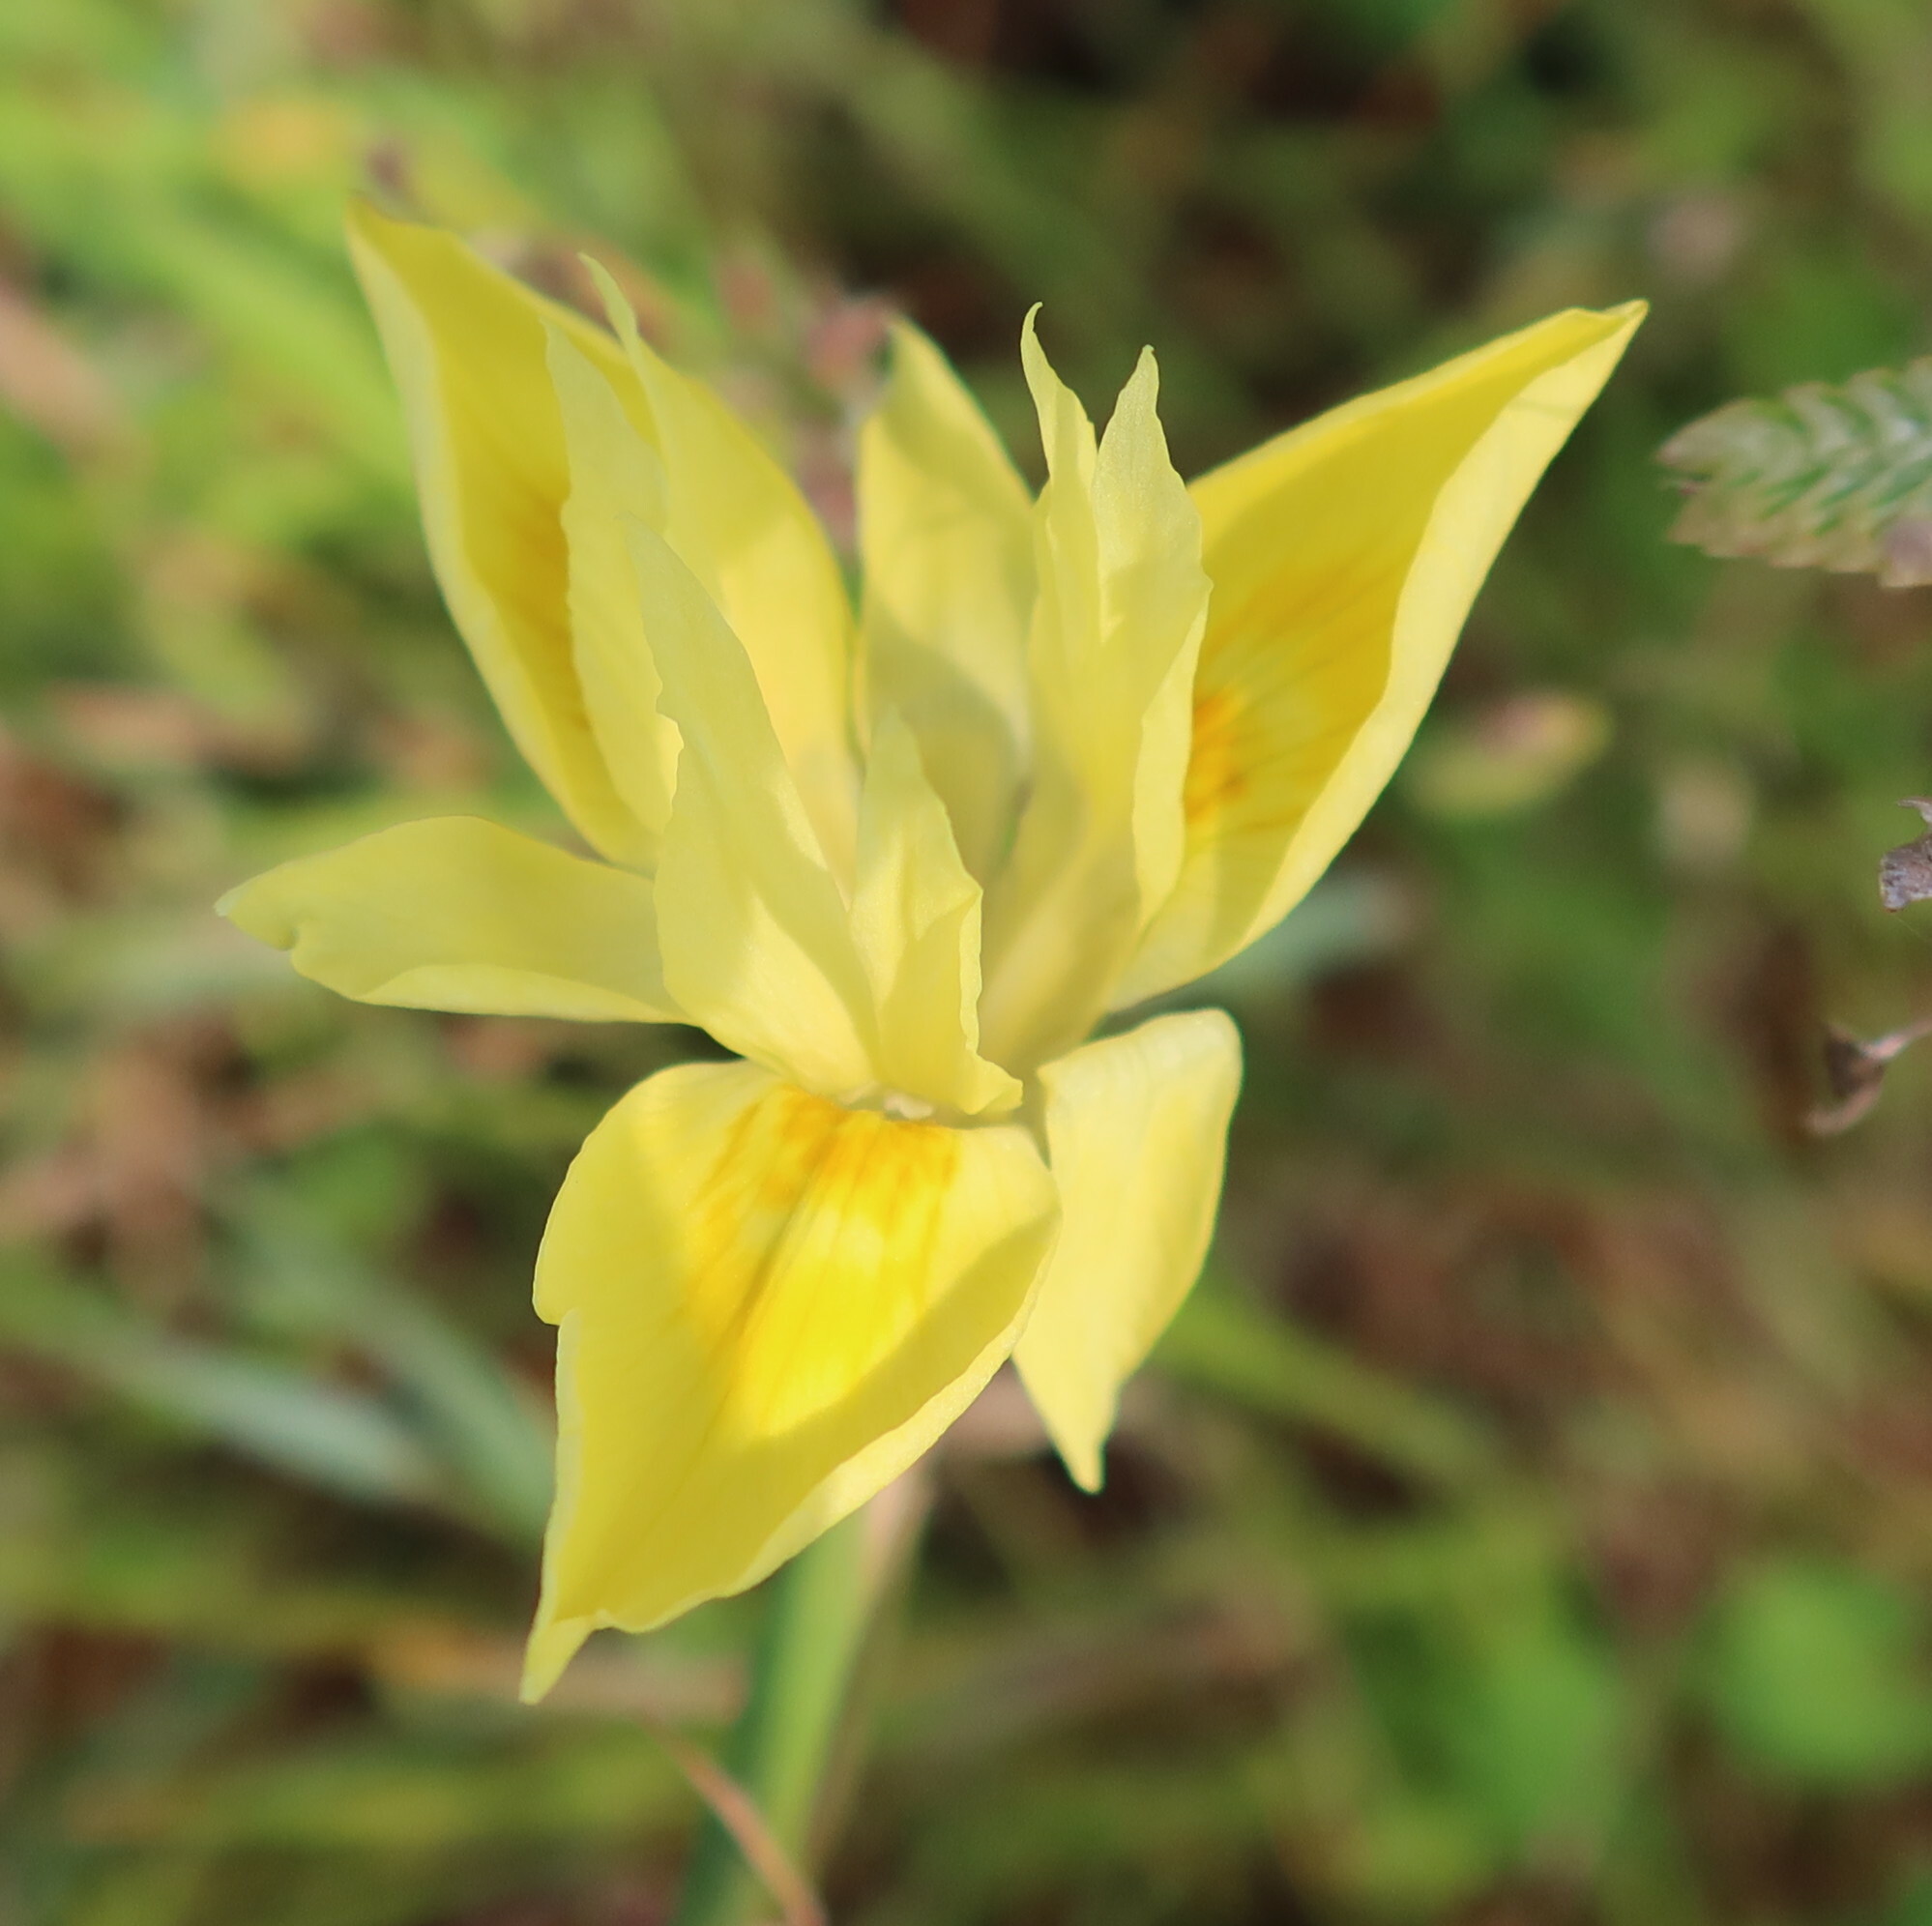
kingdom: Plantae
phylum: Tracheophyta
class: Liliopsida
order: Asparagales
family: Iridaceae
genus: Moraea
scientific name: Moraea fugax
